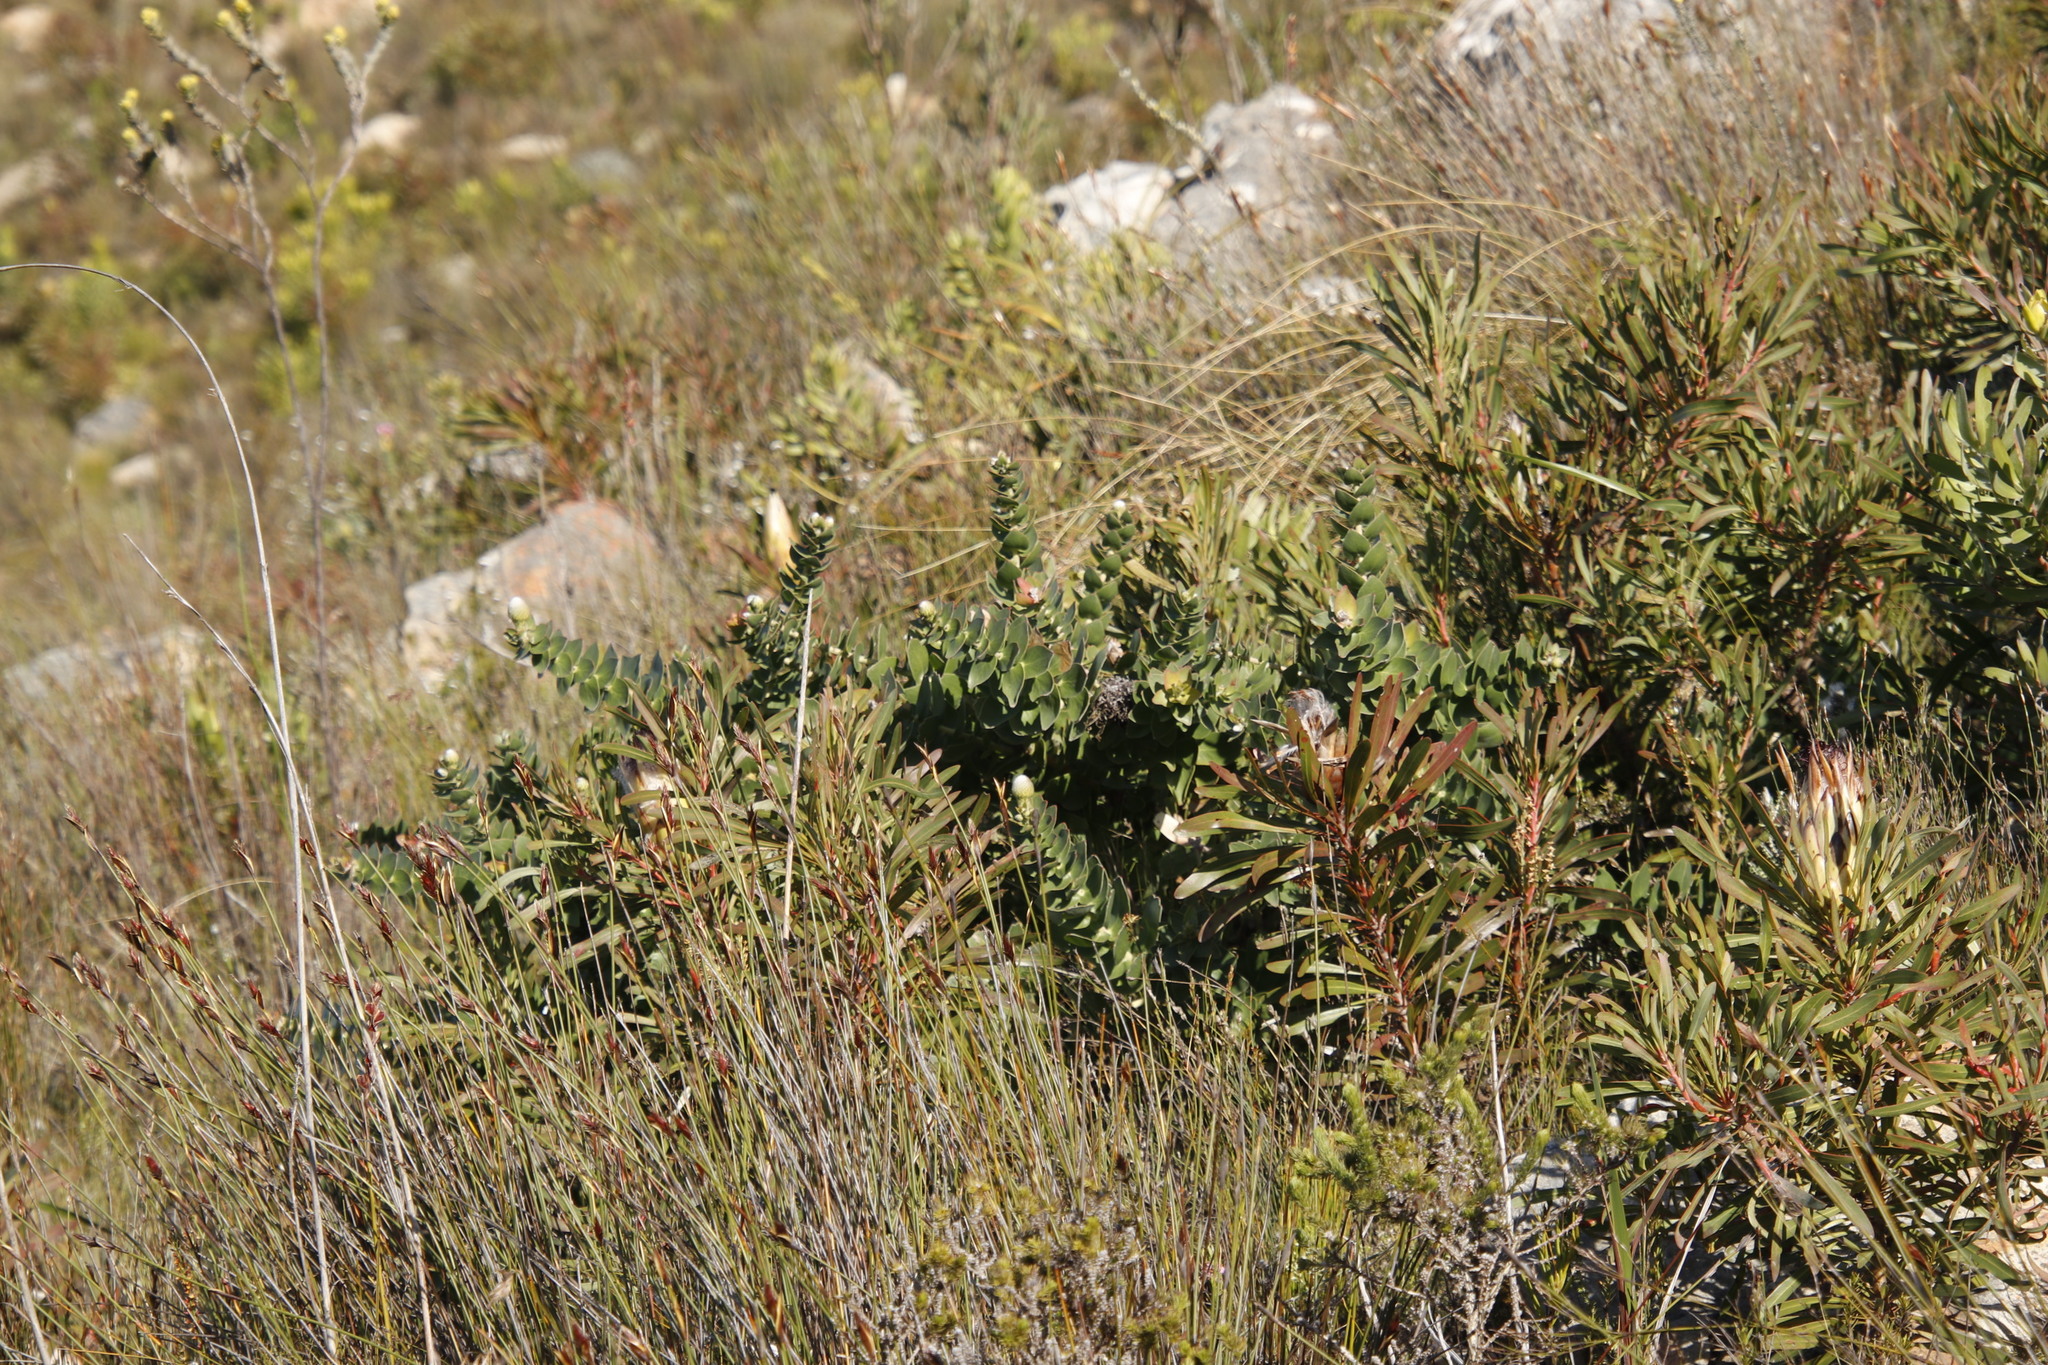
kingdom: Plantae
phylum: Tracheophyta
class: Magnoliopsida
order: Proteales
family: Proteaceae
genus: Leucospermum
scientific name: Leucospermum cordifolium
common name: Red pincushion-protea
